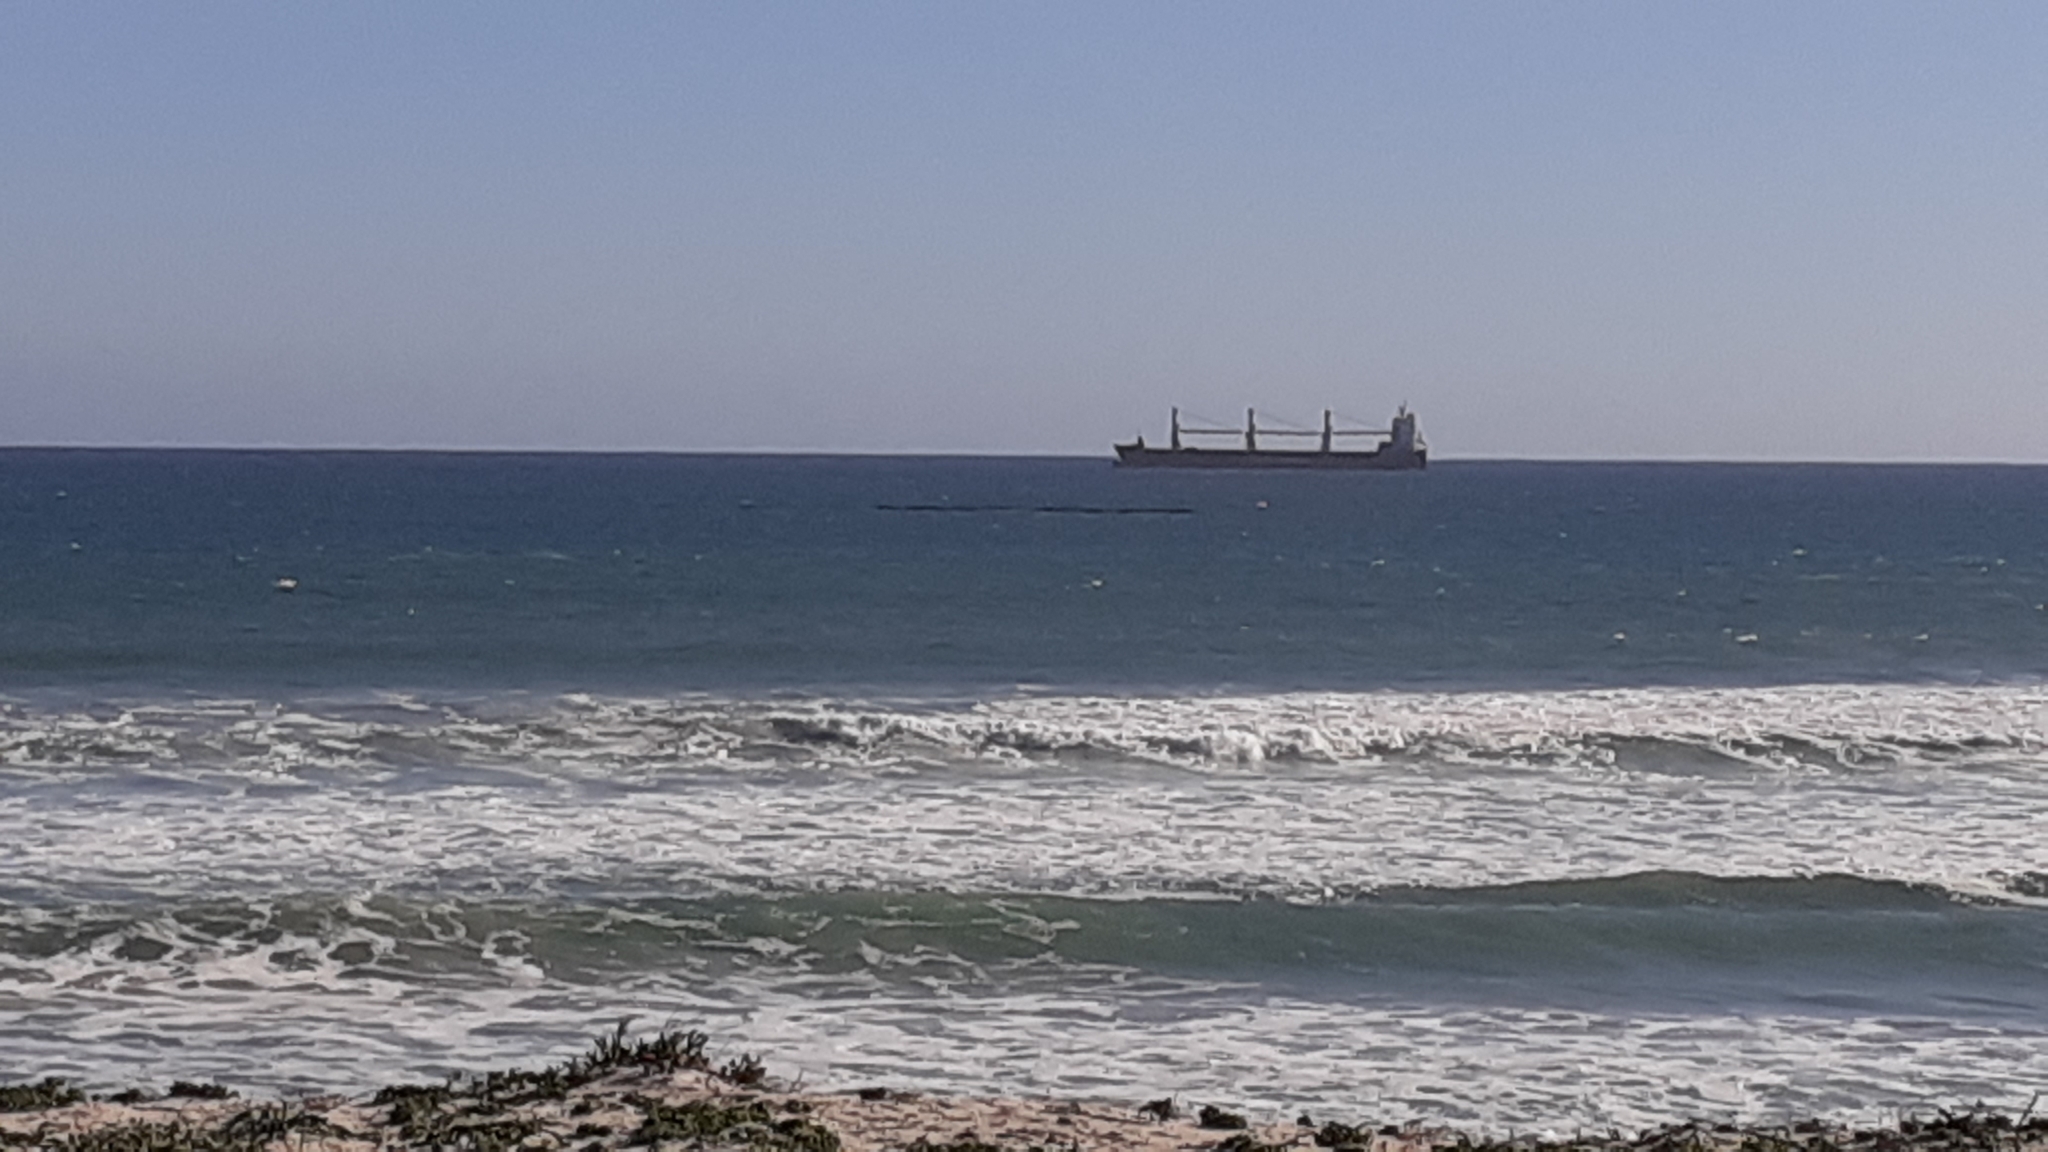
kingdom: Chromista
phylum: Ochrophyta
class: Phaeophyceae
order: Laminariales
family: Lessoniaceae
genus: Ecklonia
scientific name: Ecklonia
